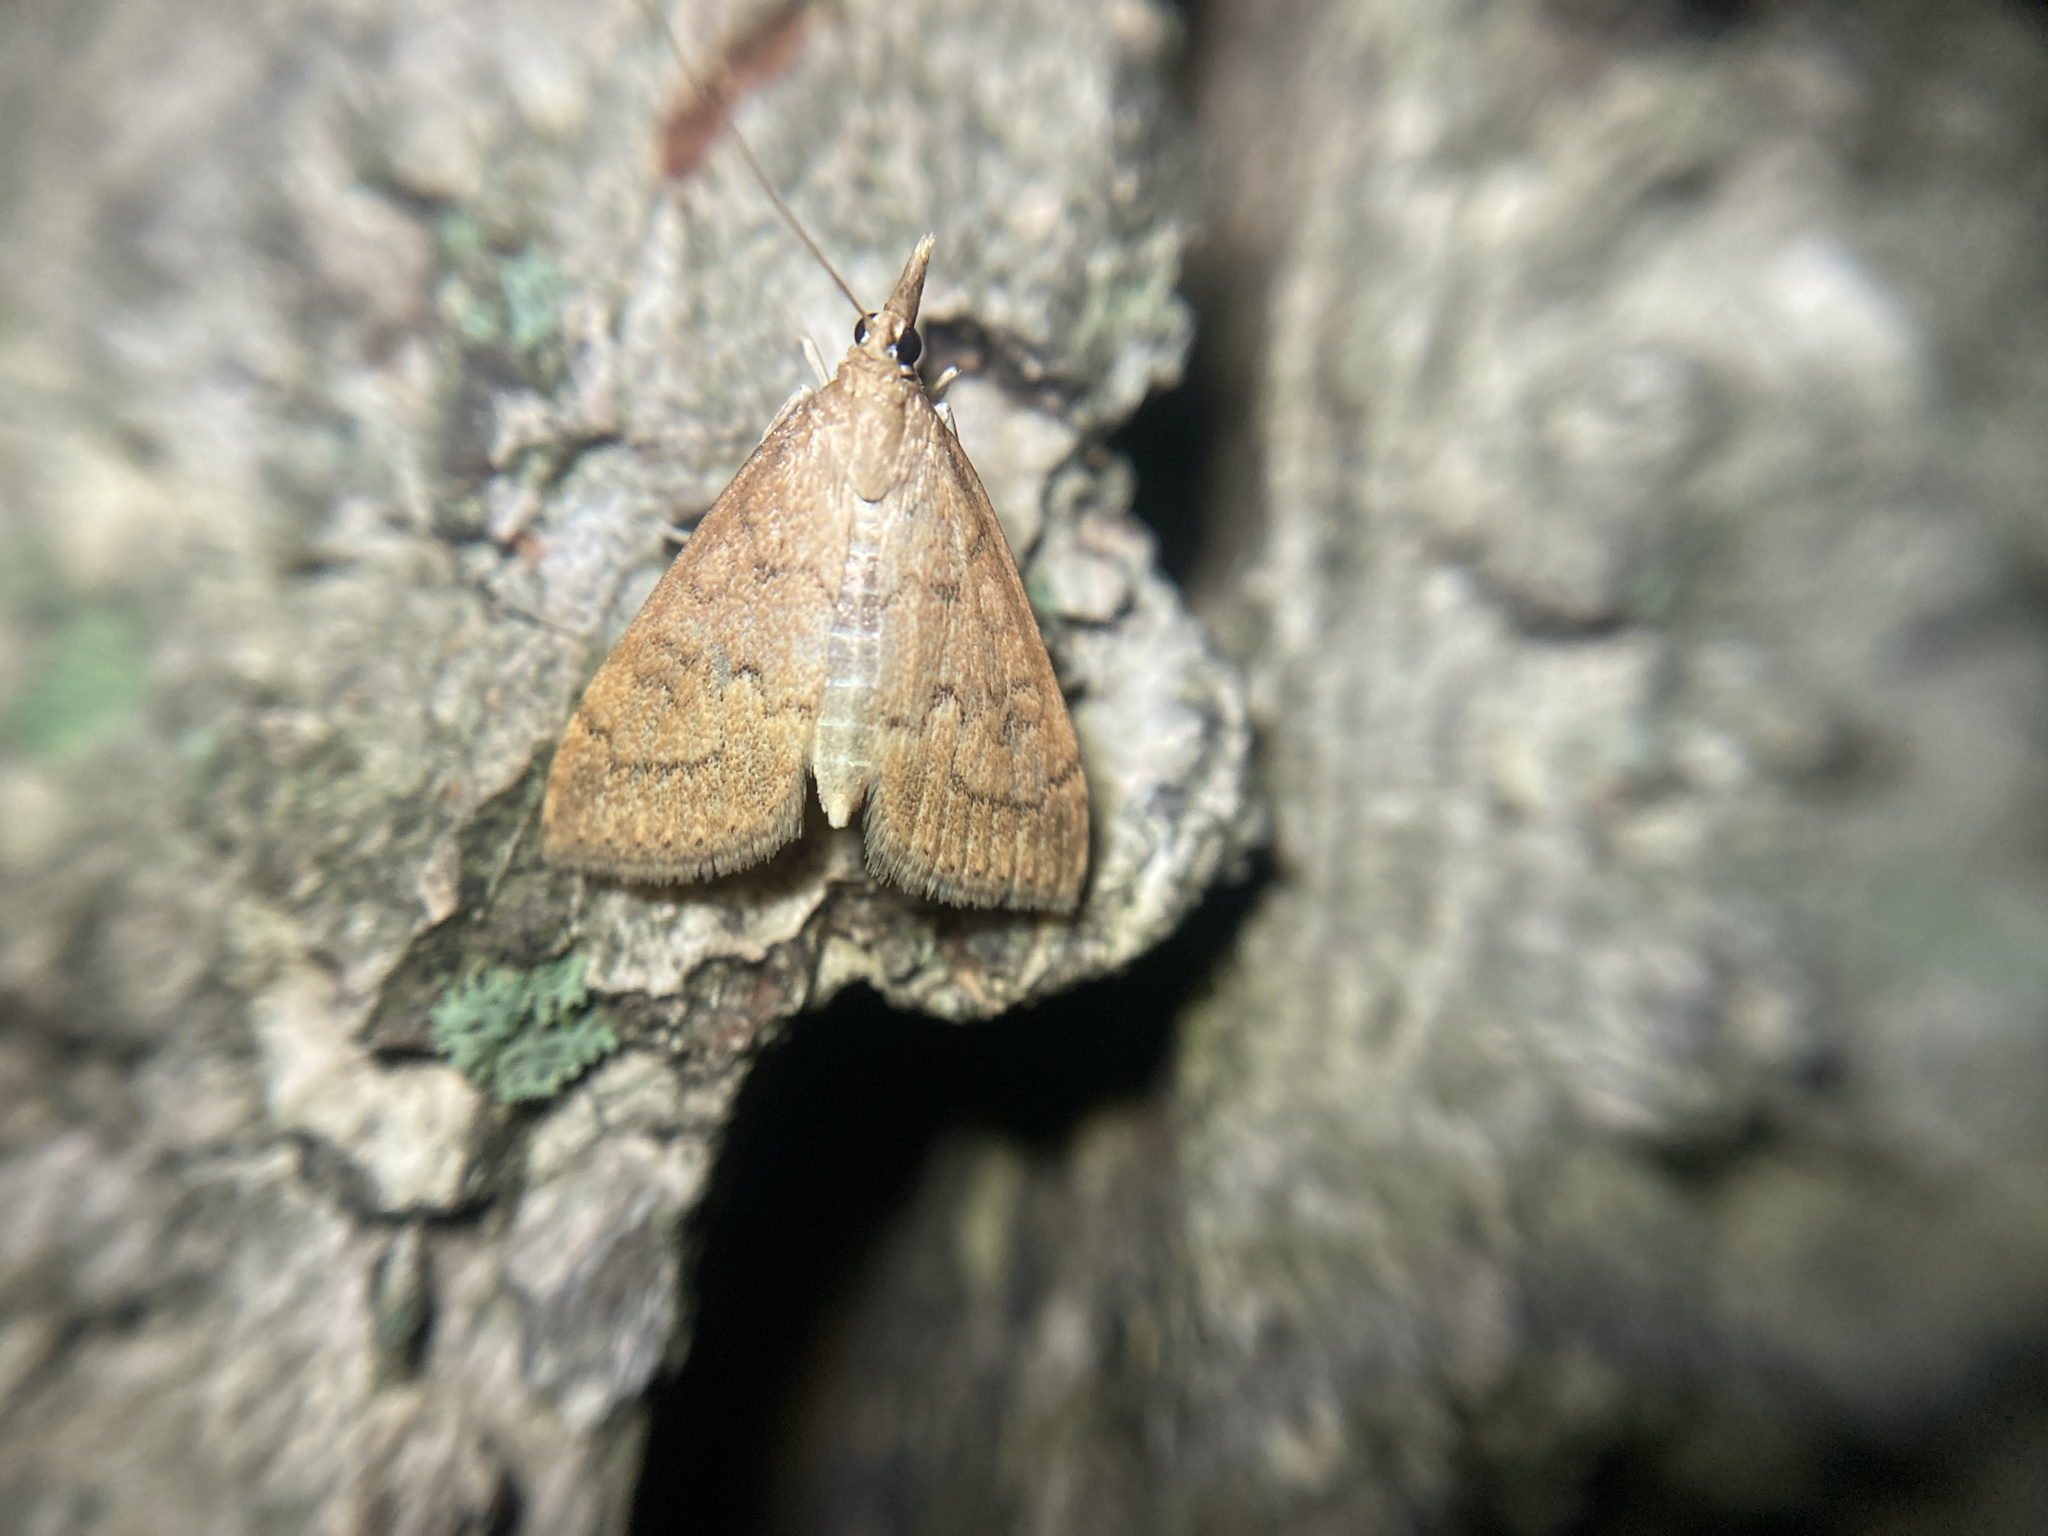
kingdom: Animalia
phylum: Arthropoda
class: Insecta
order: Lepidoptera
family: Crambidae
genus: Udea
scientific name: Udea rubigalis
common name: Celery leaftier moth
